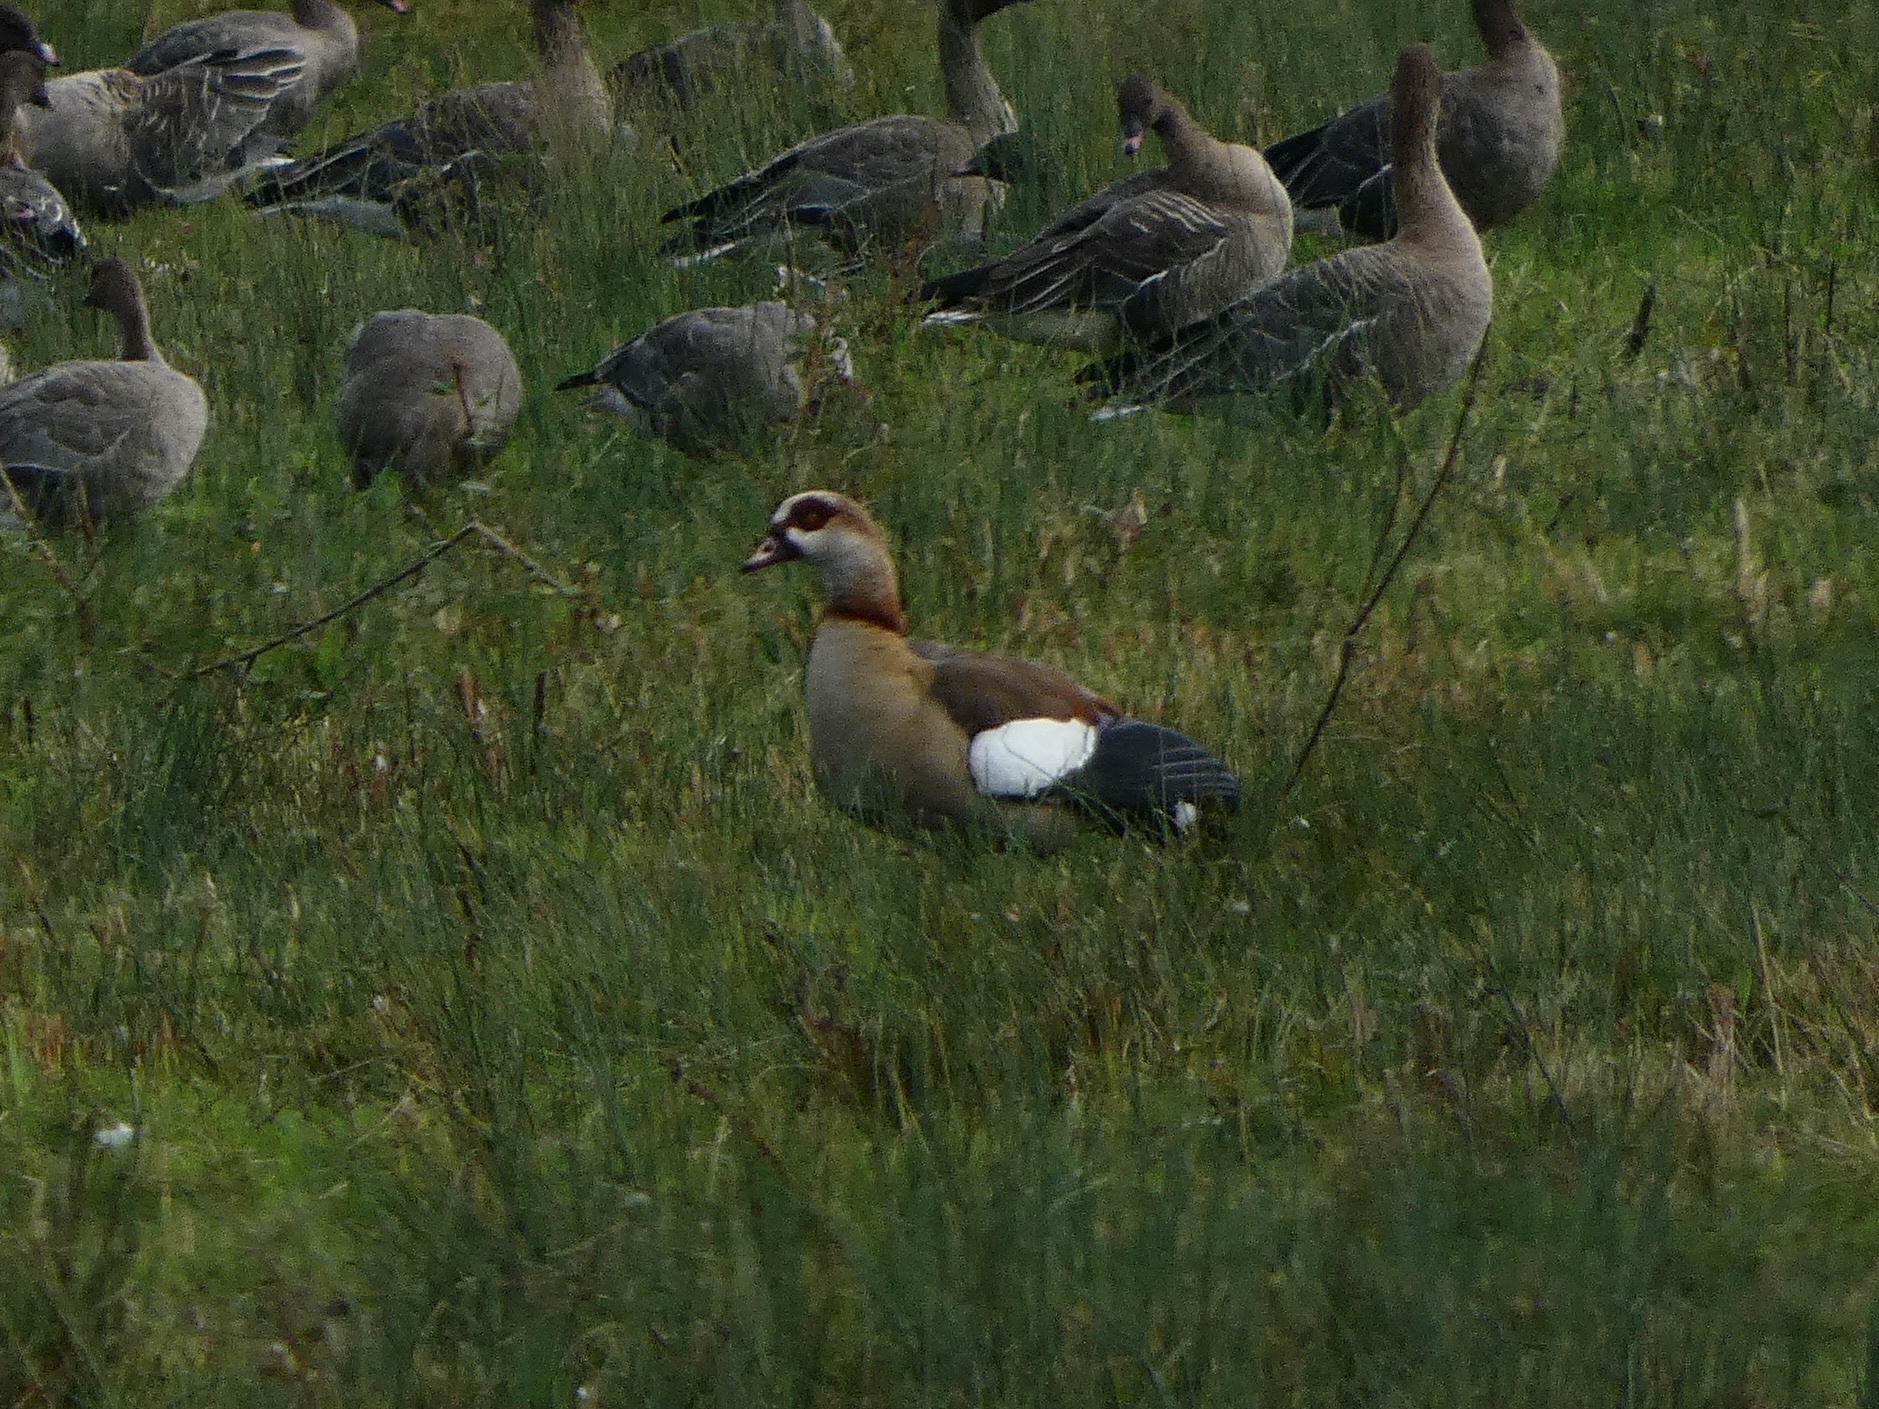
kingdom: Animalia
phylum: Chordata
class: Aves
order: Anseriformes
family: Anatidae
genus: Alopochen
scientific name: Alopochen aegyptiaca
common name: Egyptian goose
